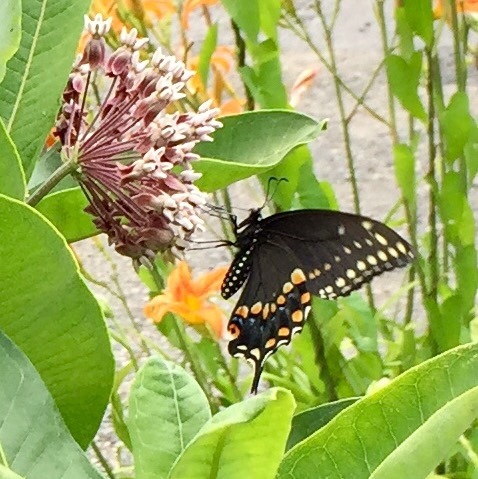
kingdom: Animalia
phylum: Arthropoda
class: Insecta
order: Lepidoptera
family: Papilionidae
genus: Papilio
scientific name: Papilio polyxenes
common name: Black swallowtail
